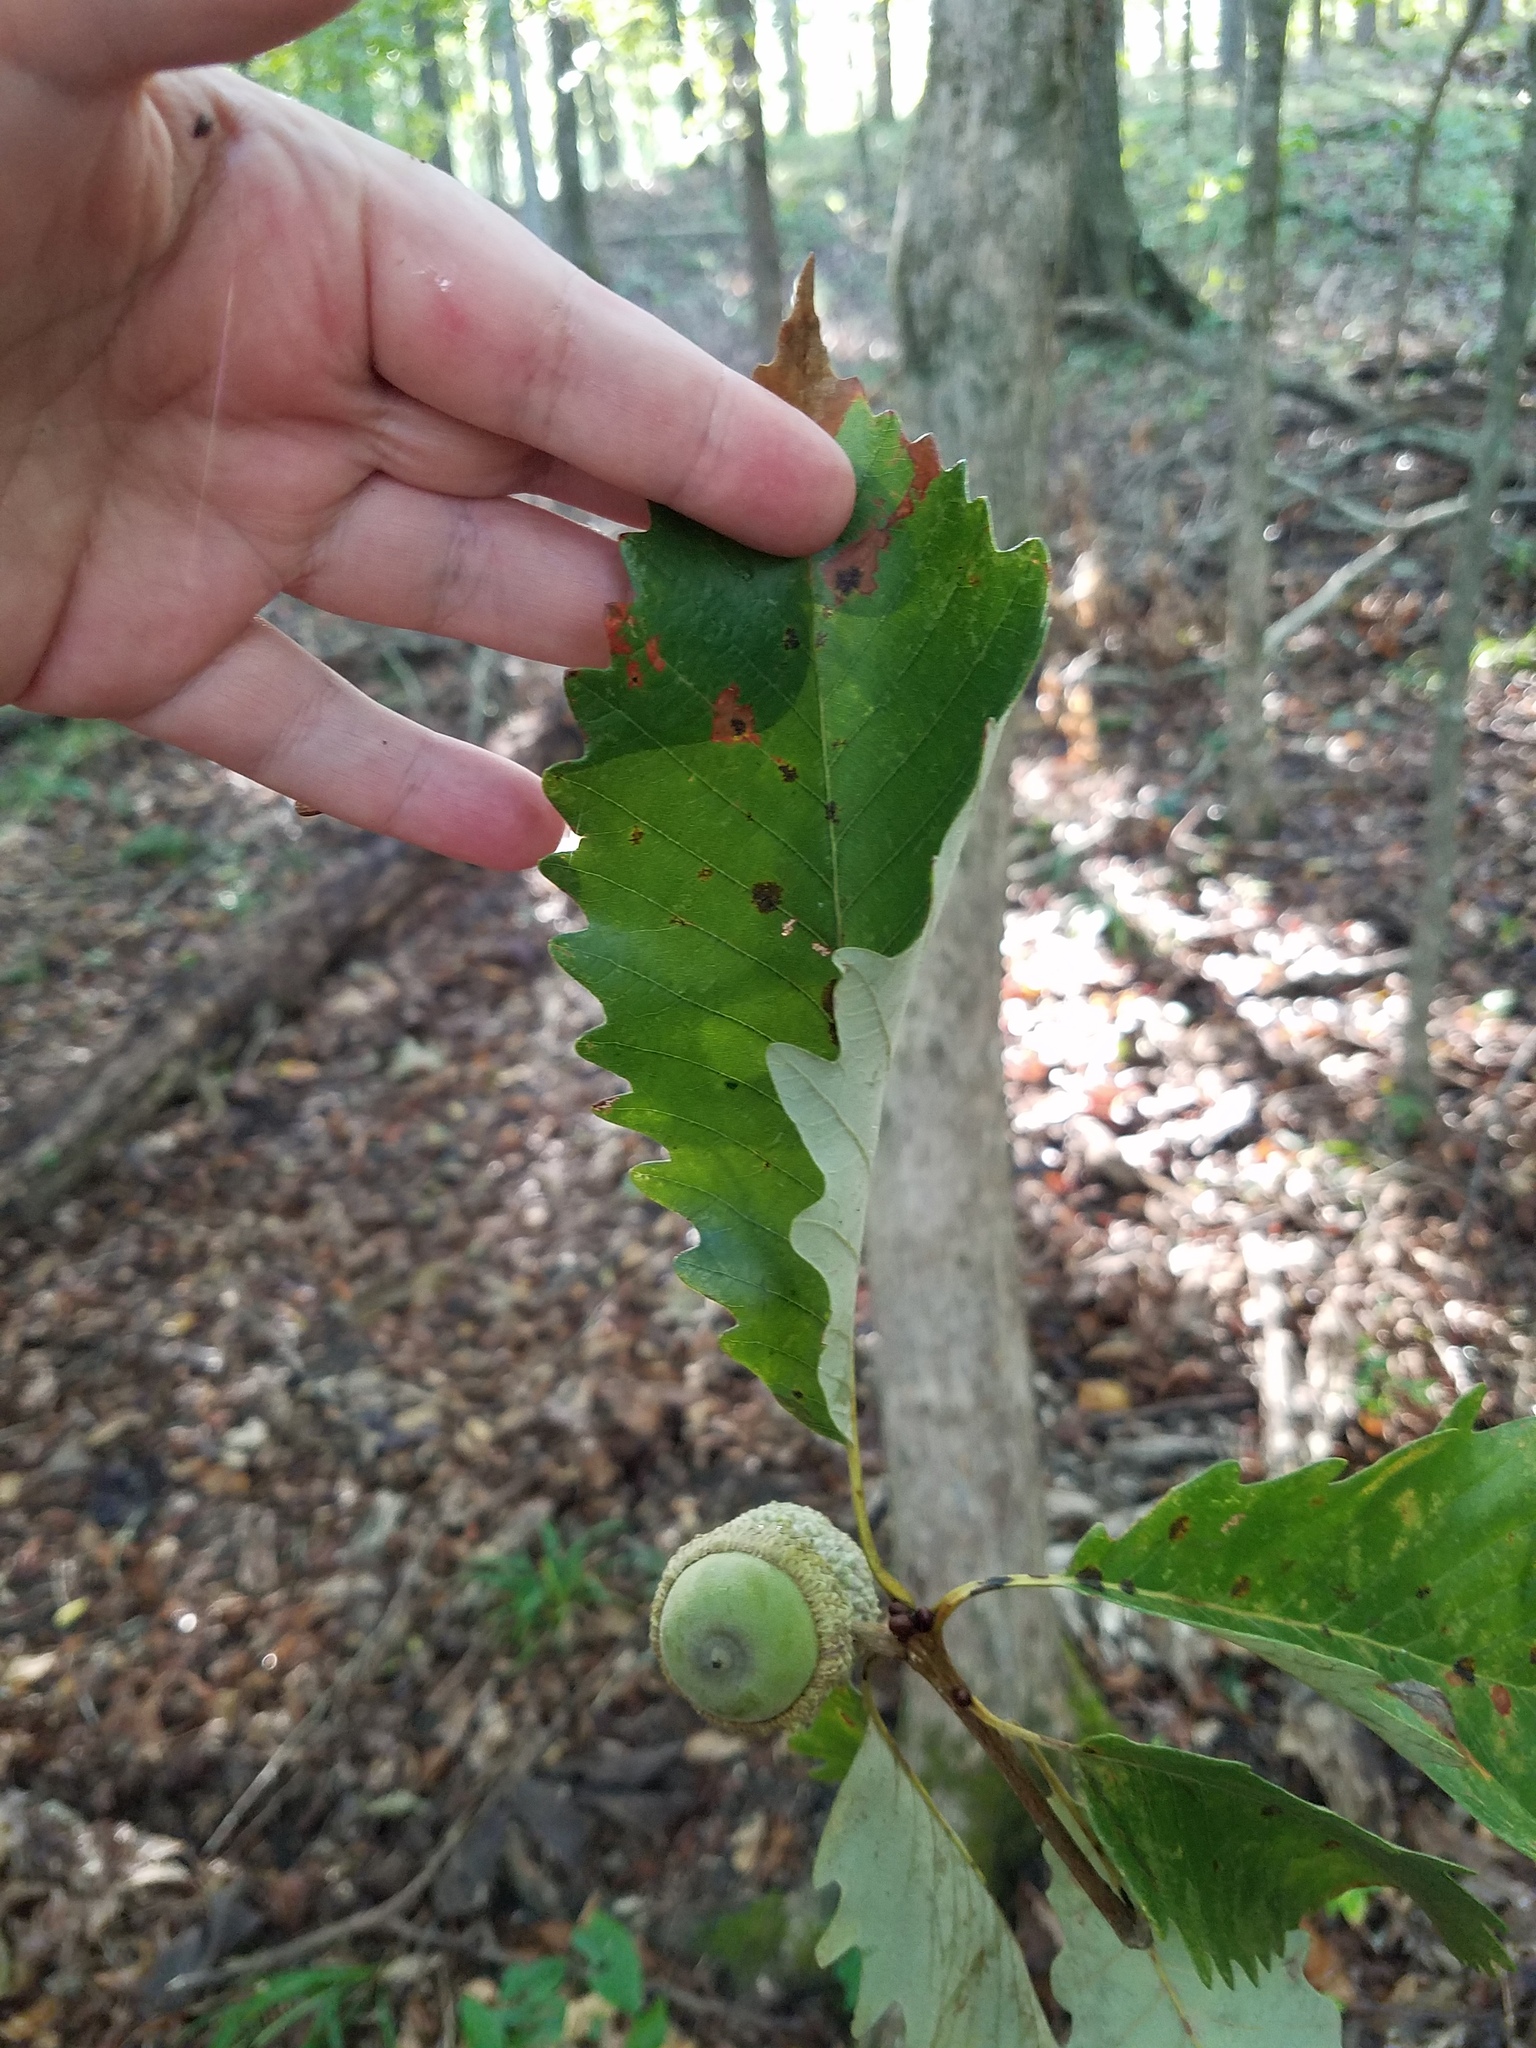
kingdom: Plantae
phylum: Tracheophyta
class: Magnoliopsida
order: Fagales
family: Fagaceae
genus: Quercus
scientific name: Quercus michauxii
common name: Swamp chestnut oak
